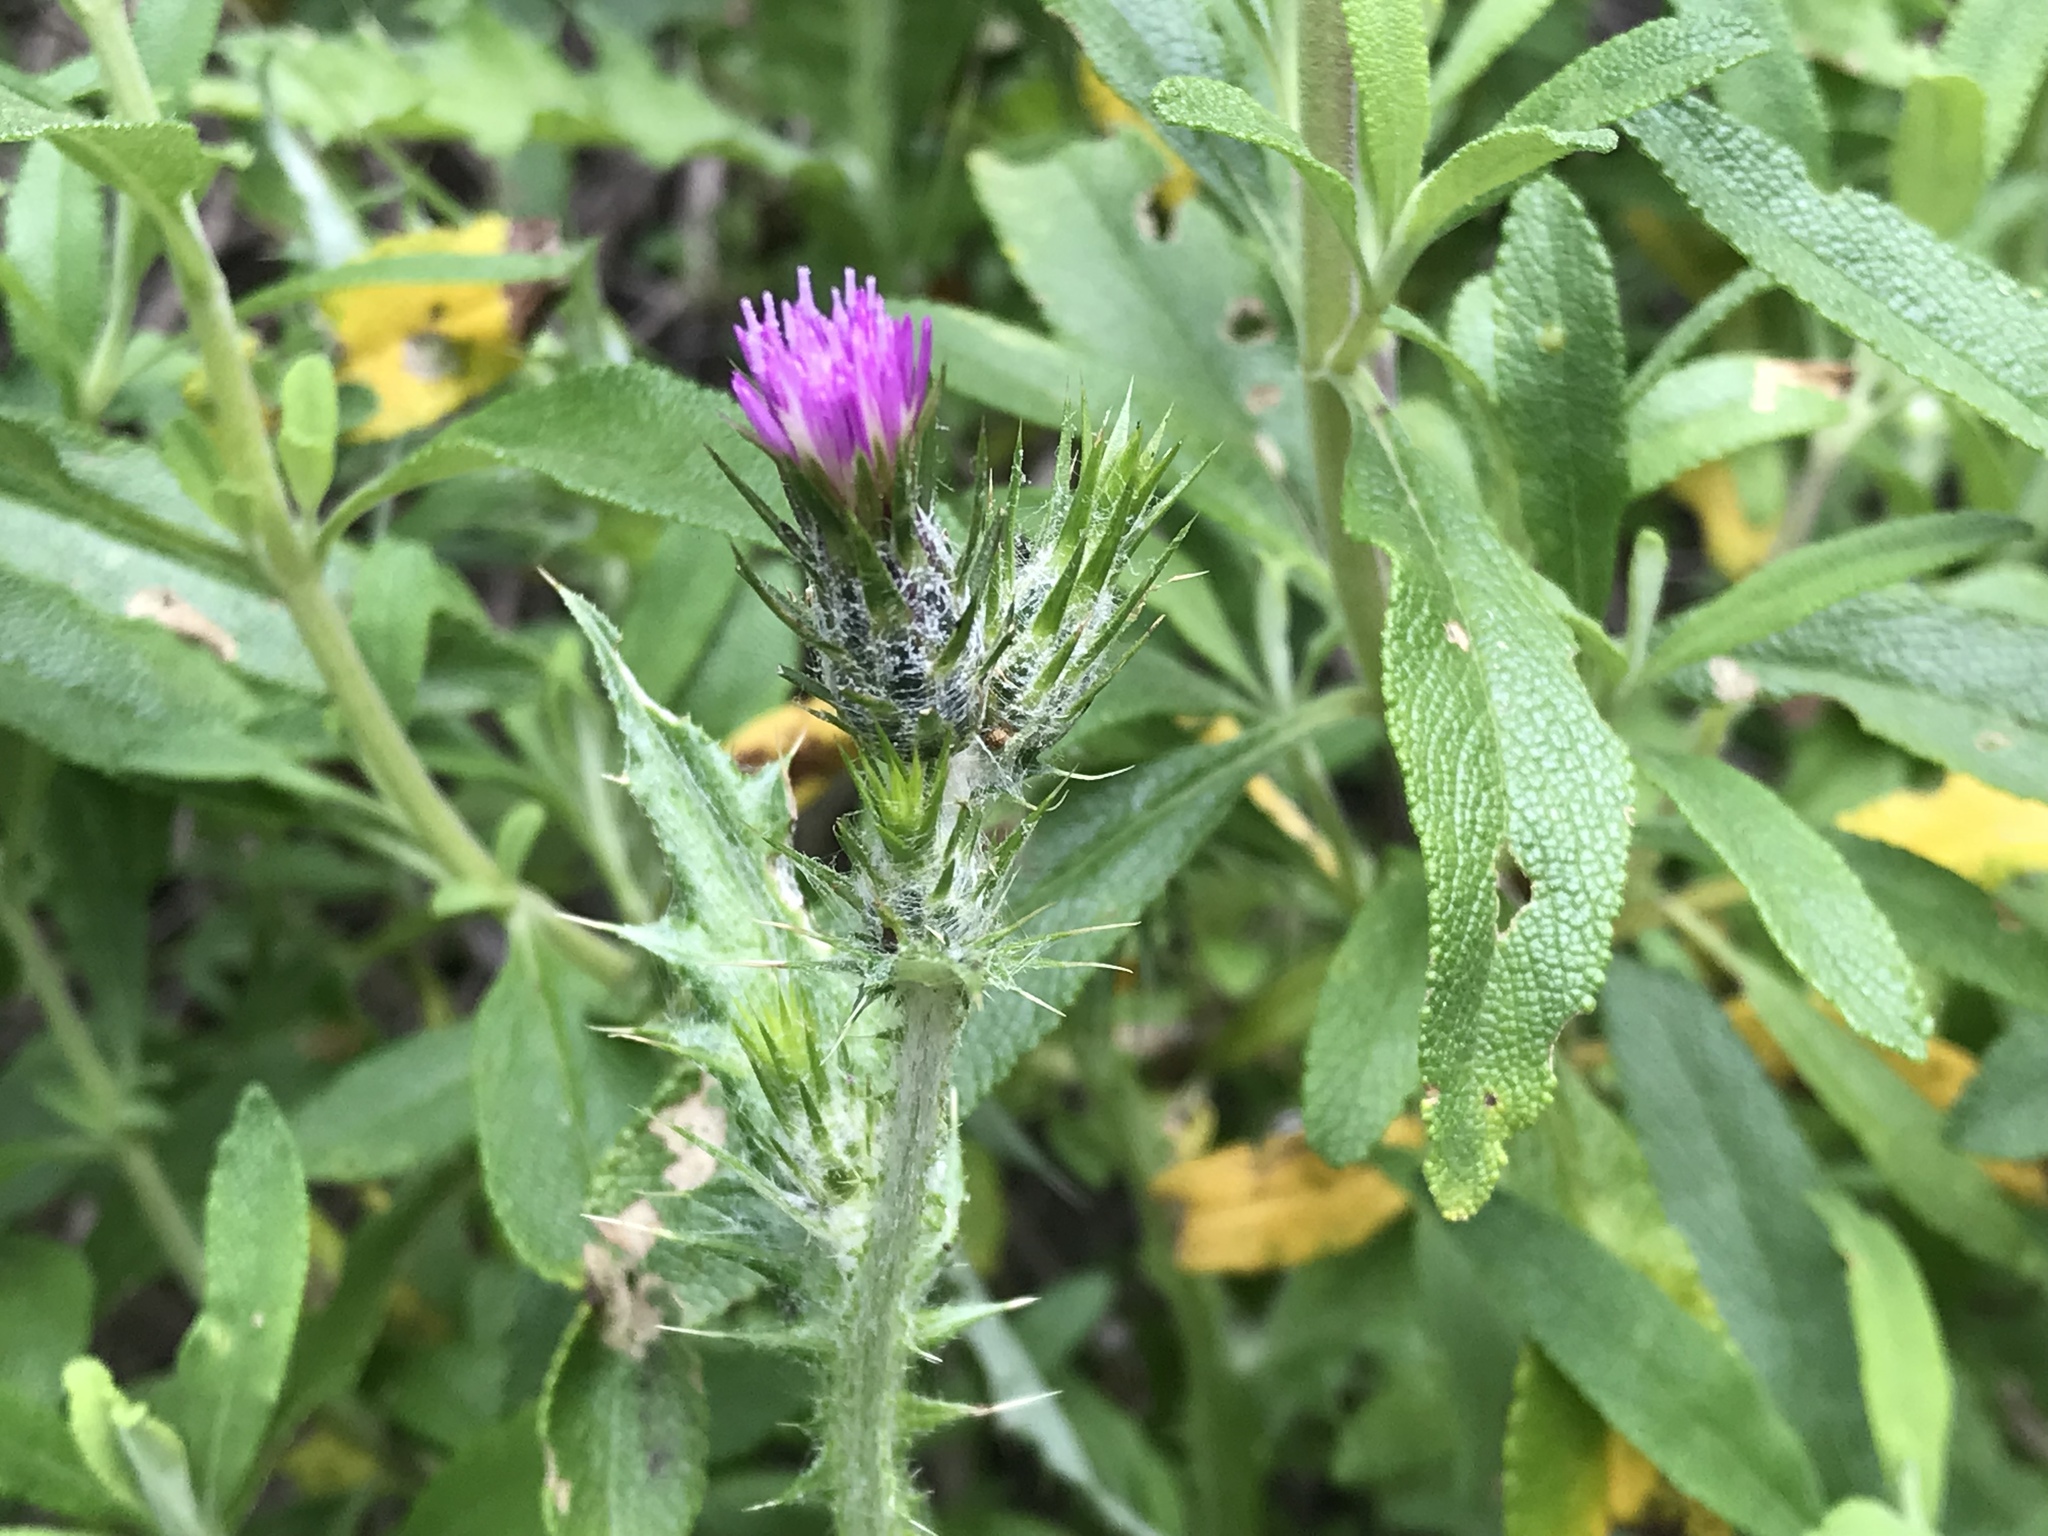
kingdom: Plantae
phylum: Tracheophyta
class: Magnoliopsida
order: Asterales
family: Asteraceae
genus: Carduus
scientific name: Carduus pycnocephalus
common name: Plymouth thistle
